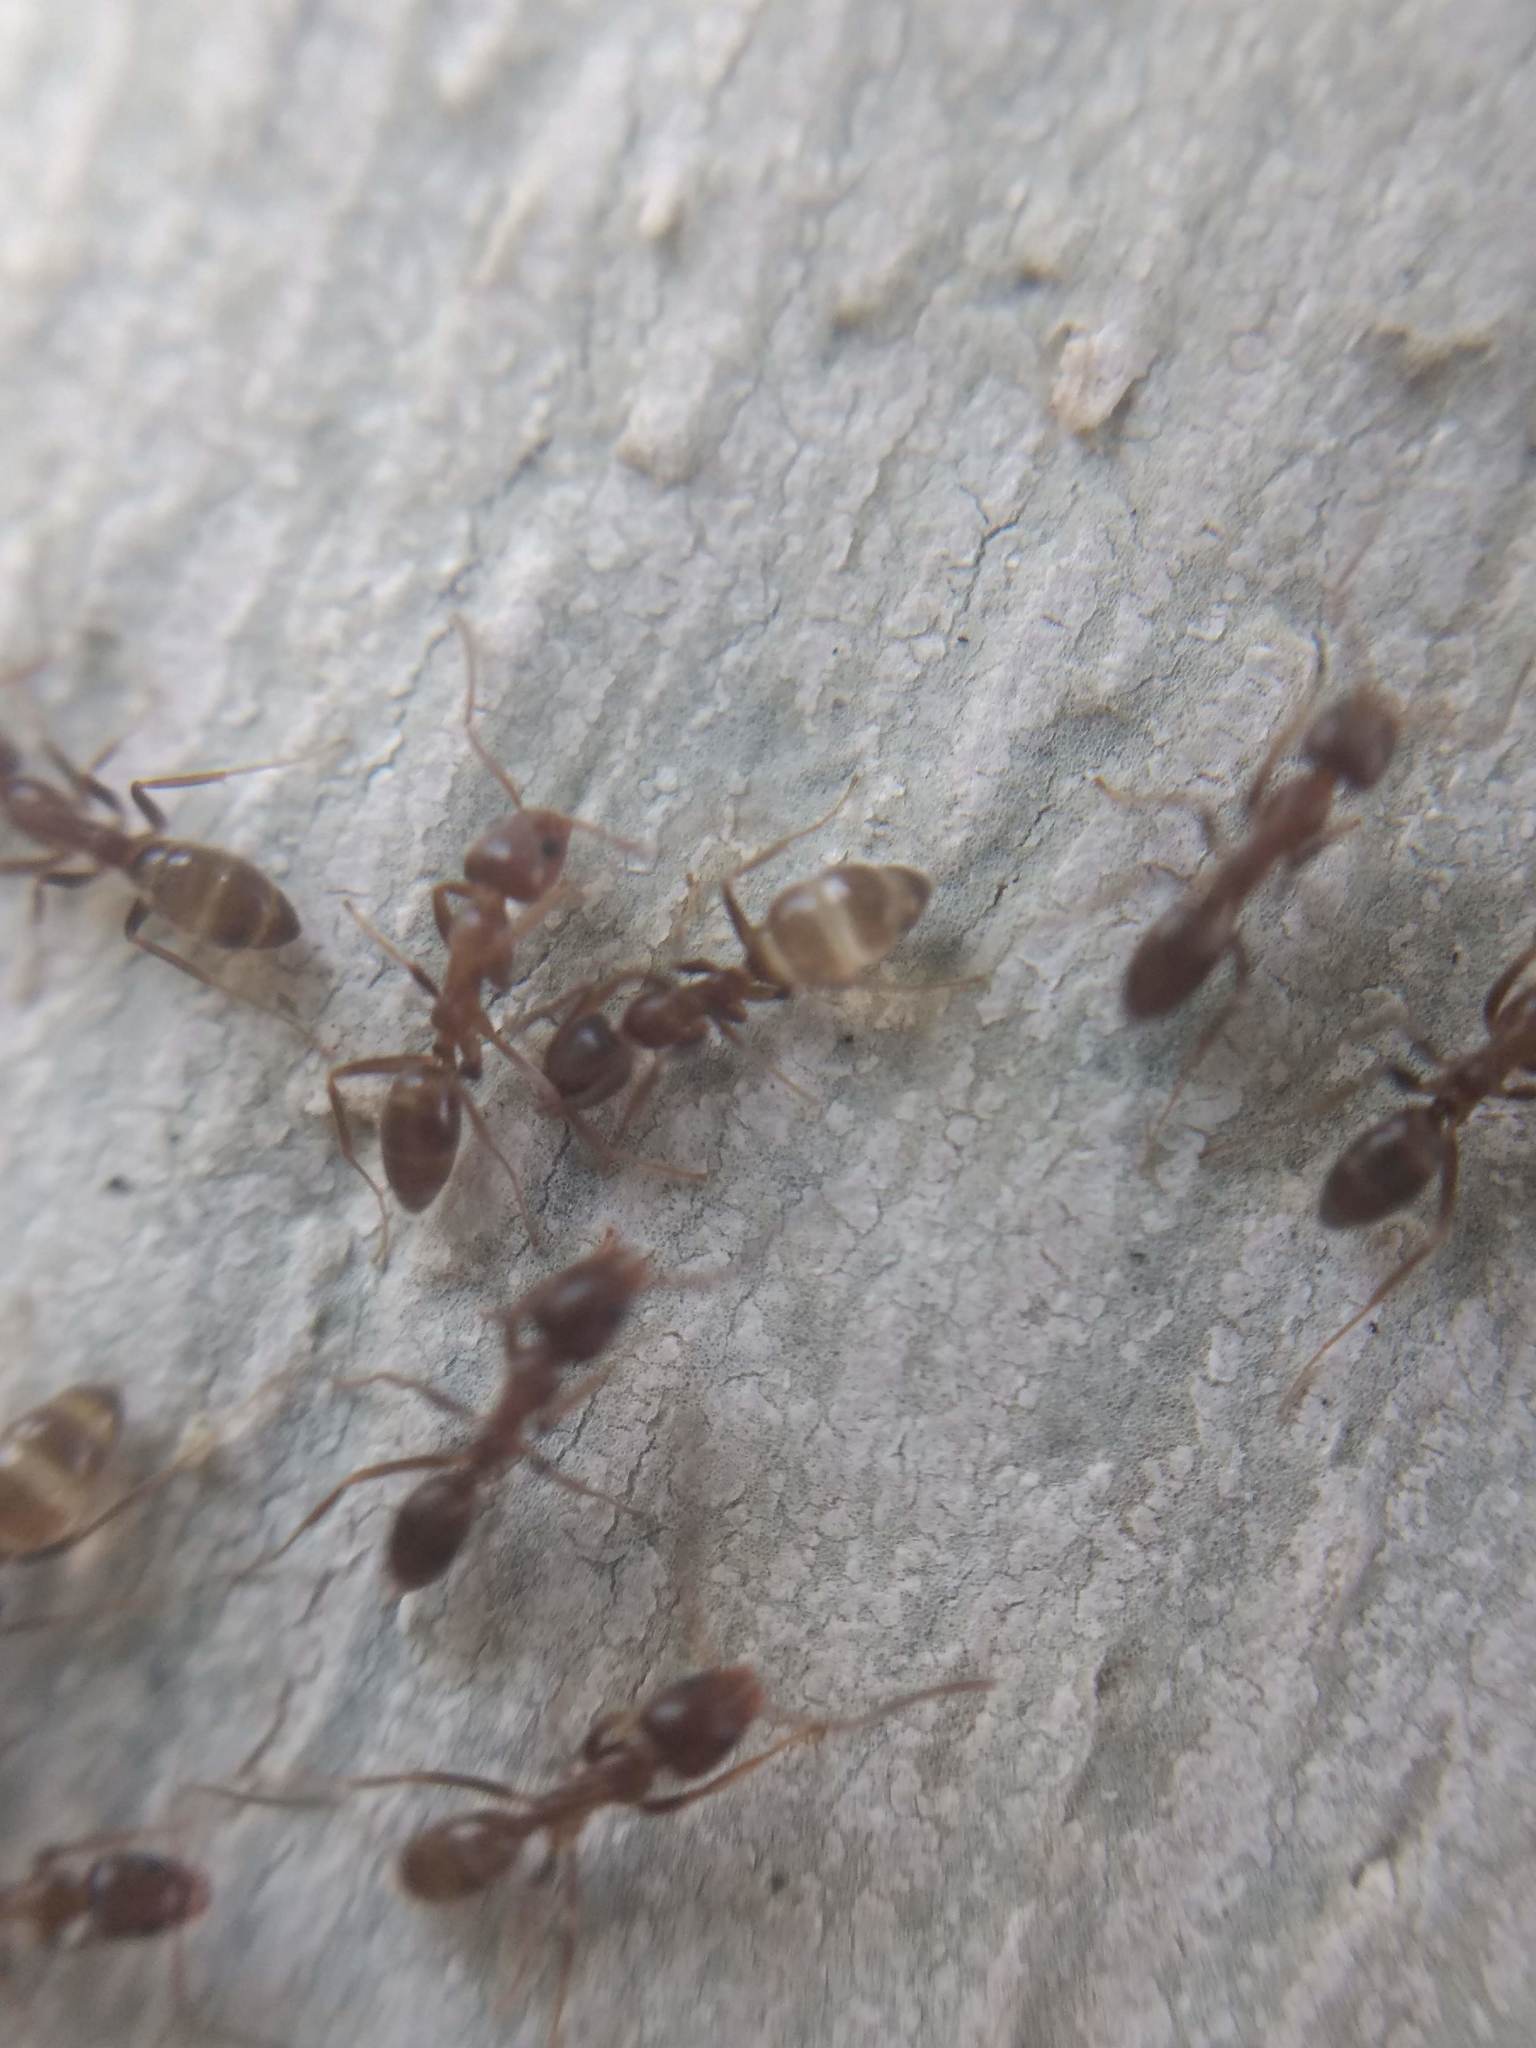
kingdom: Animalia
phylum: Arthropoda
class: Insecta
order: Hymenoptera
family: Formicidae
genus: Linepithema
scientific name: Linepithema humile
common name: Argentine ant
